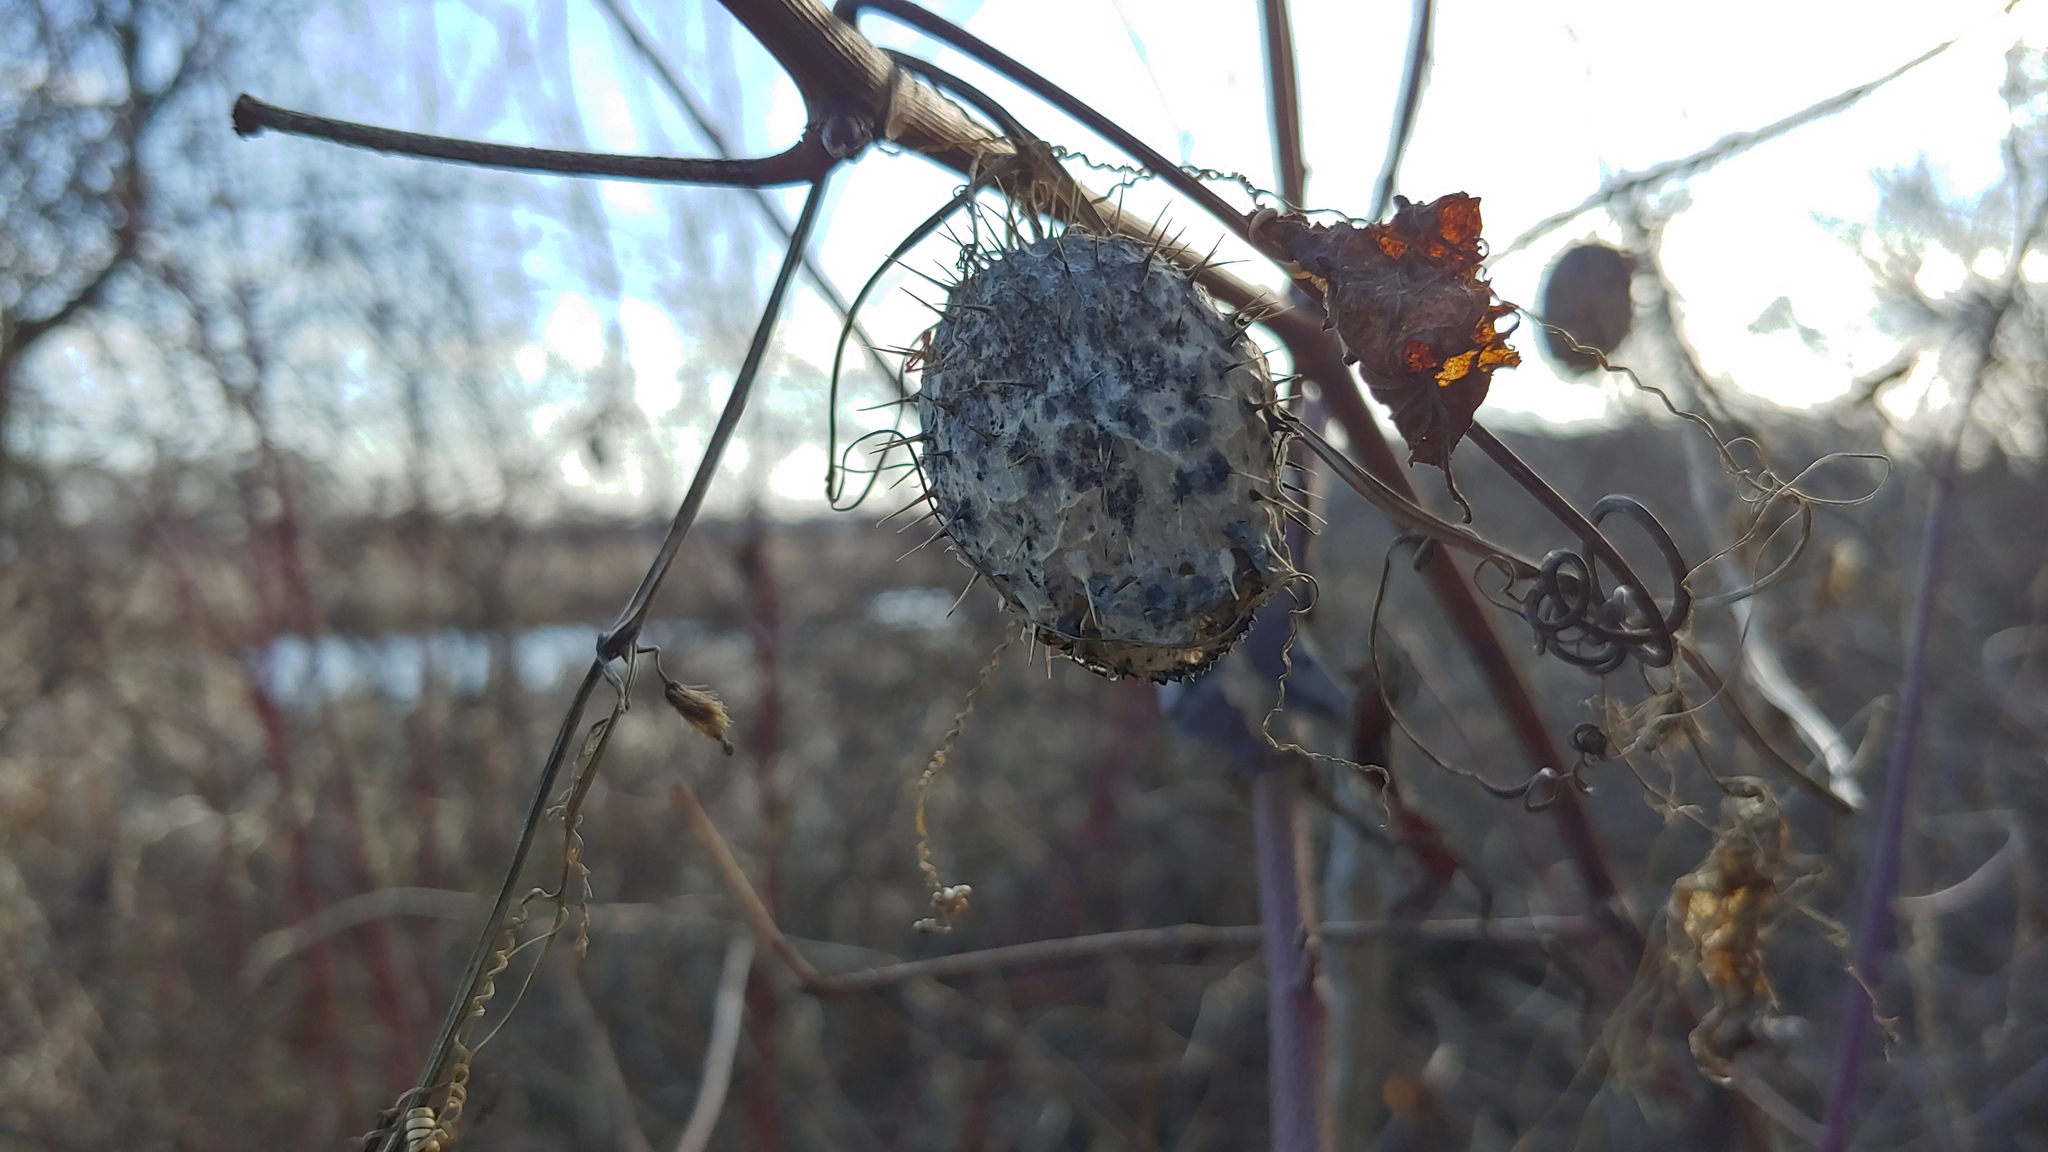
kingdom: Plantae
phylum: Tracheophyta
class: Magnoliopsida
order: Cucurbitales
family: Cucurbitaceae
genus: Echinocystis
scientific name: Echinocystis lobata
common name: Wild cucumber
